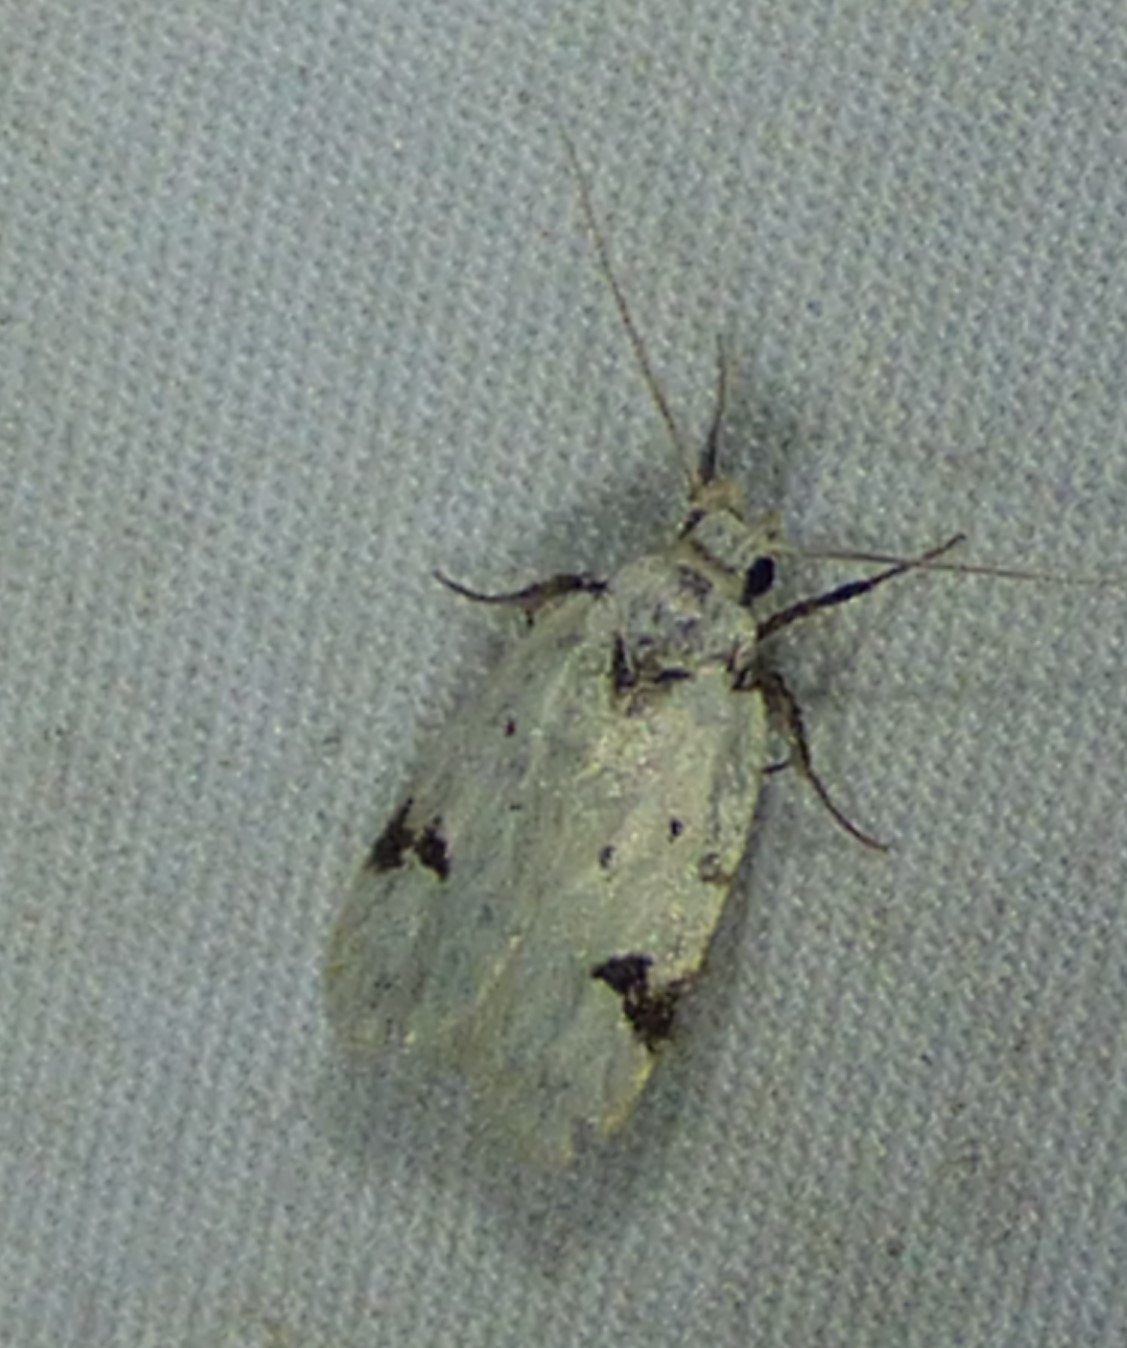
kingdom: Animalia
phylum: Arthropoda
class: Insecta
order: Lepidoptera
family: Oecophoridae
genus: Inga
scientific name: Inga sparsiciliella
